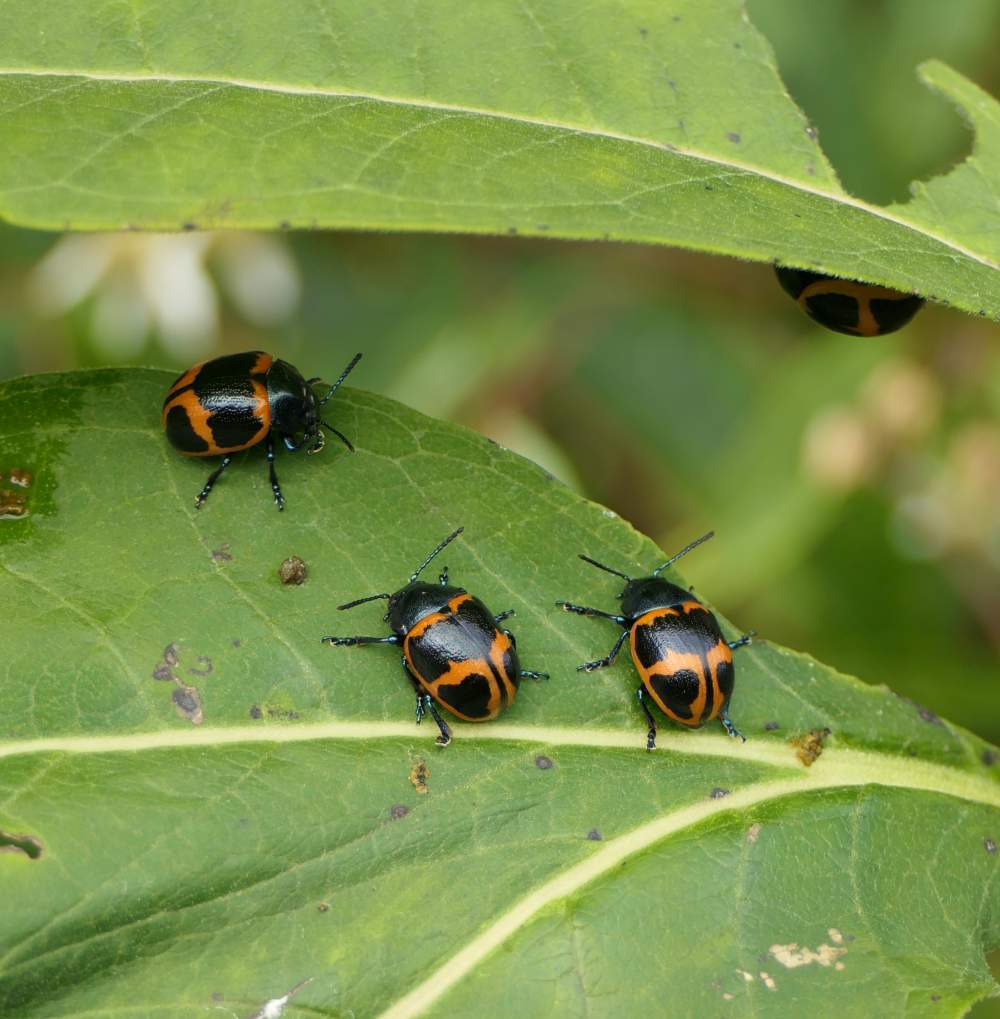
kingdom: Animalia
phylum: Arthropoda
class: Insecta
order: Coleoptera
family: Chrysomelidae
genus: Labidomera
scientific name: Labidomera clivicollis
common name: Swamp milkweed leaf beetle
